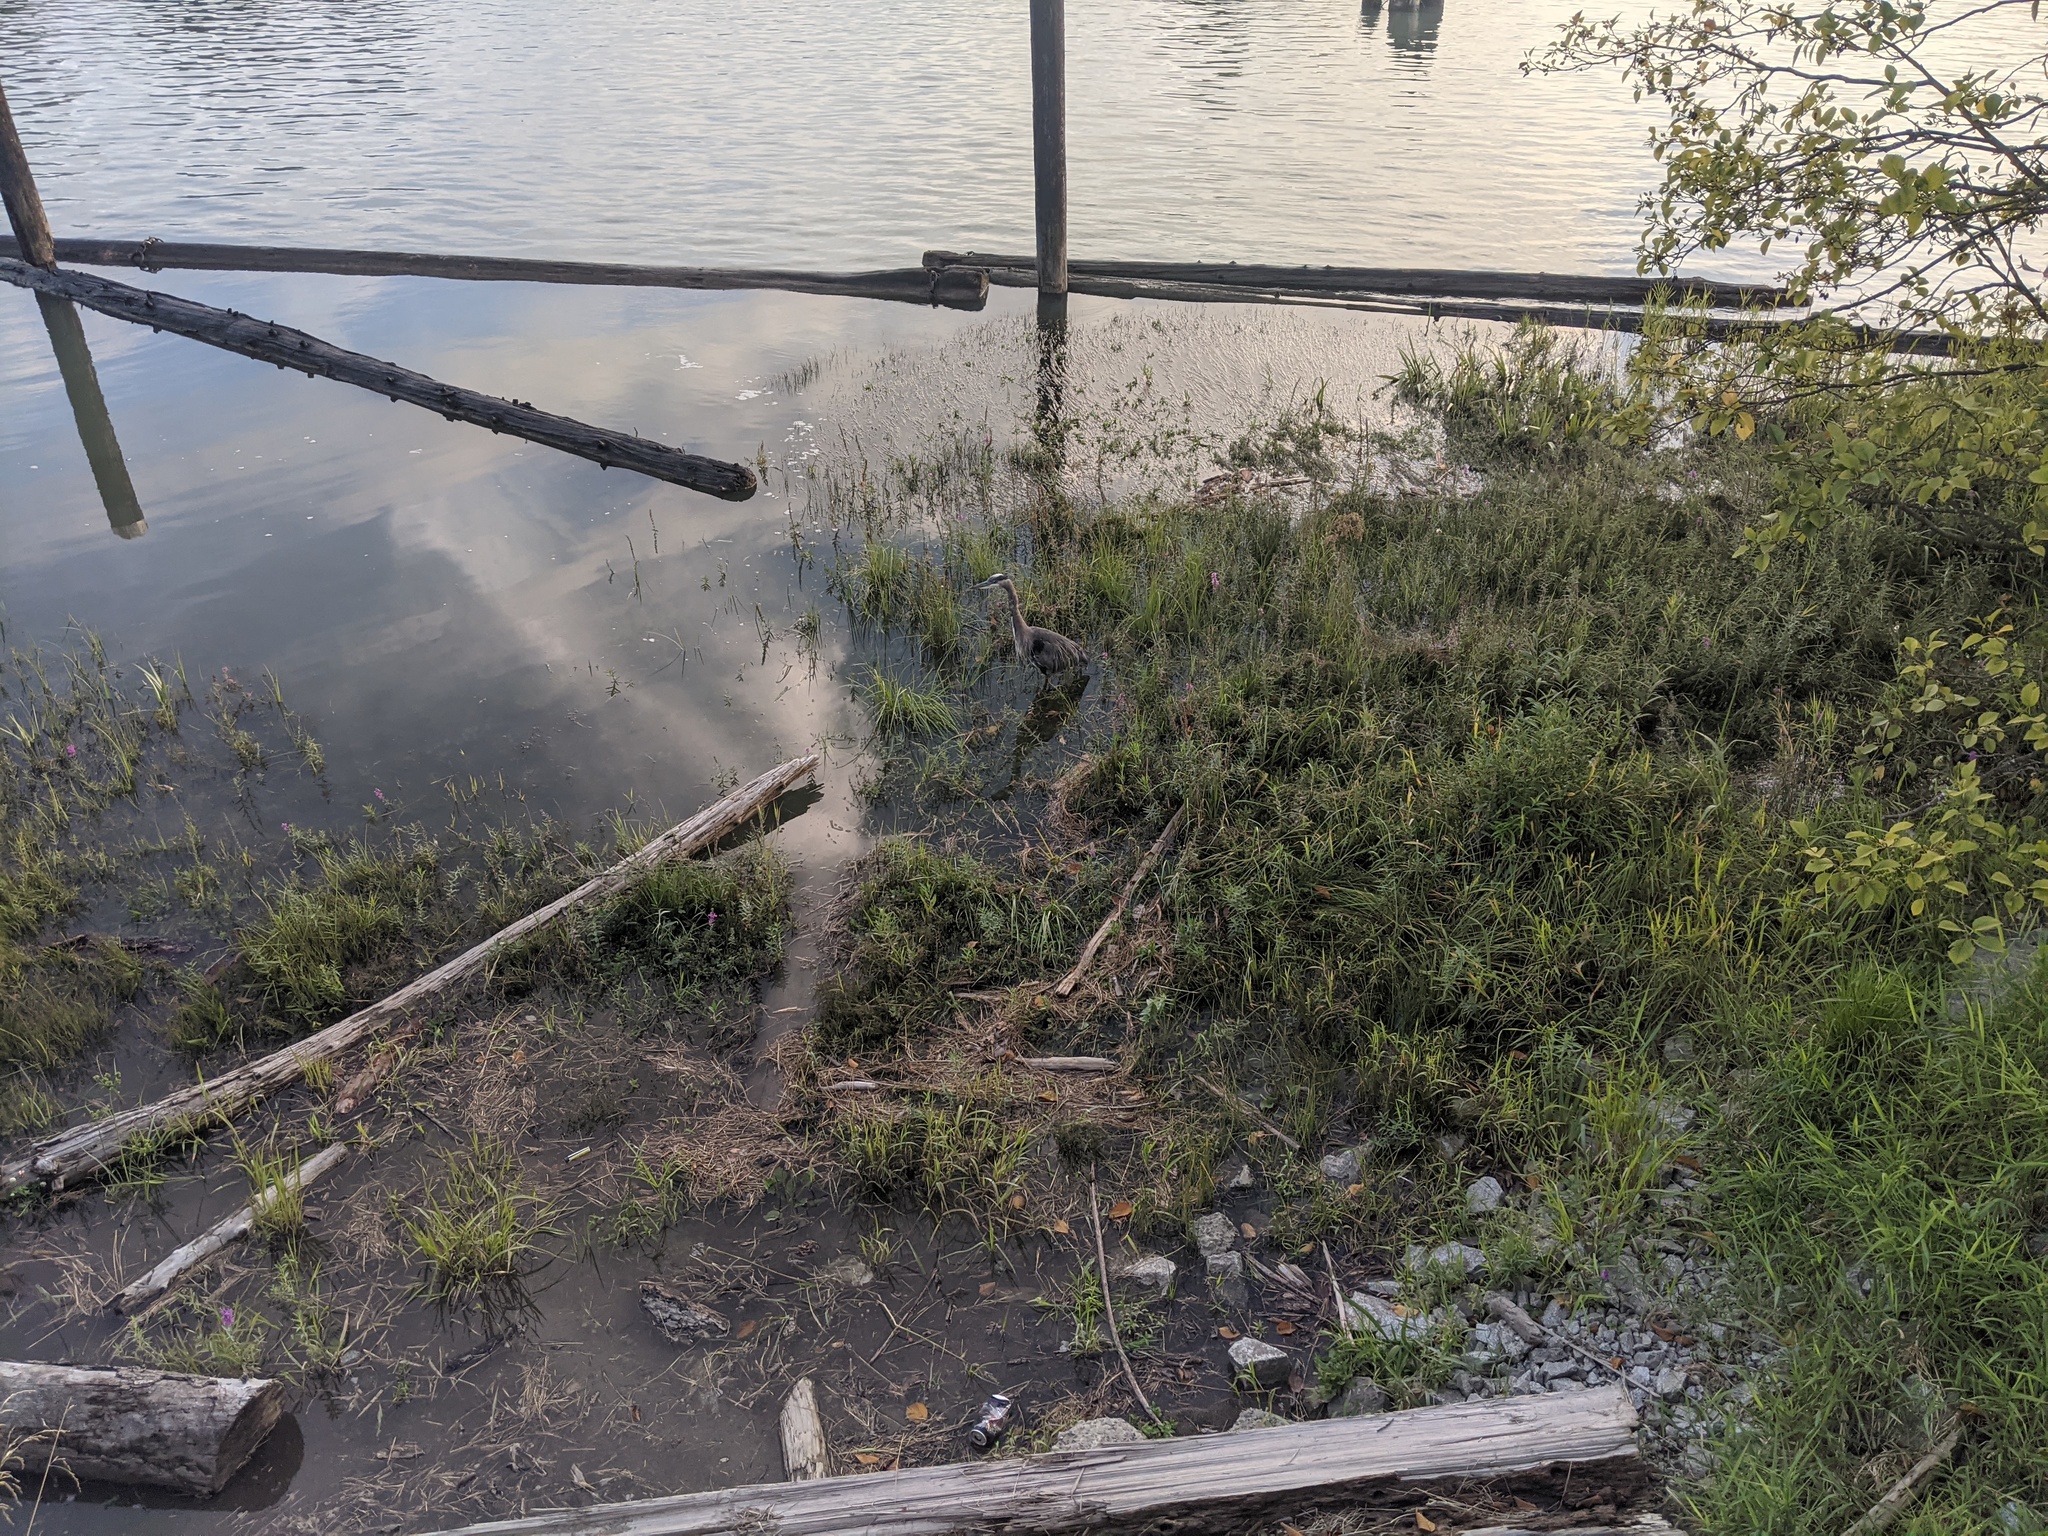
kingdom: Animalia
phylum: Chordata
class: Aves
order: Pelecaniformes
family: Ardeidae
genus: Ardea
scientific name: Ardea herodias
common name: Great blue heron
